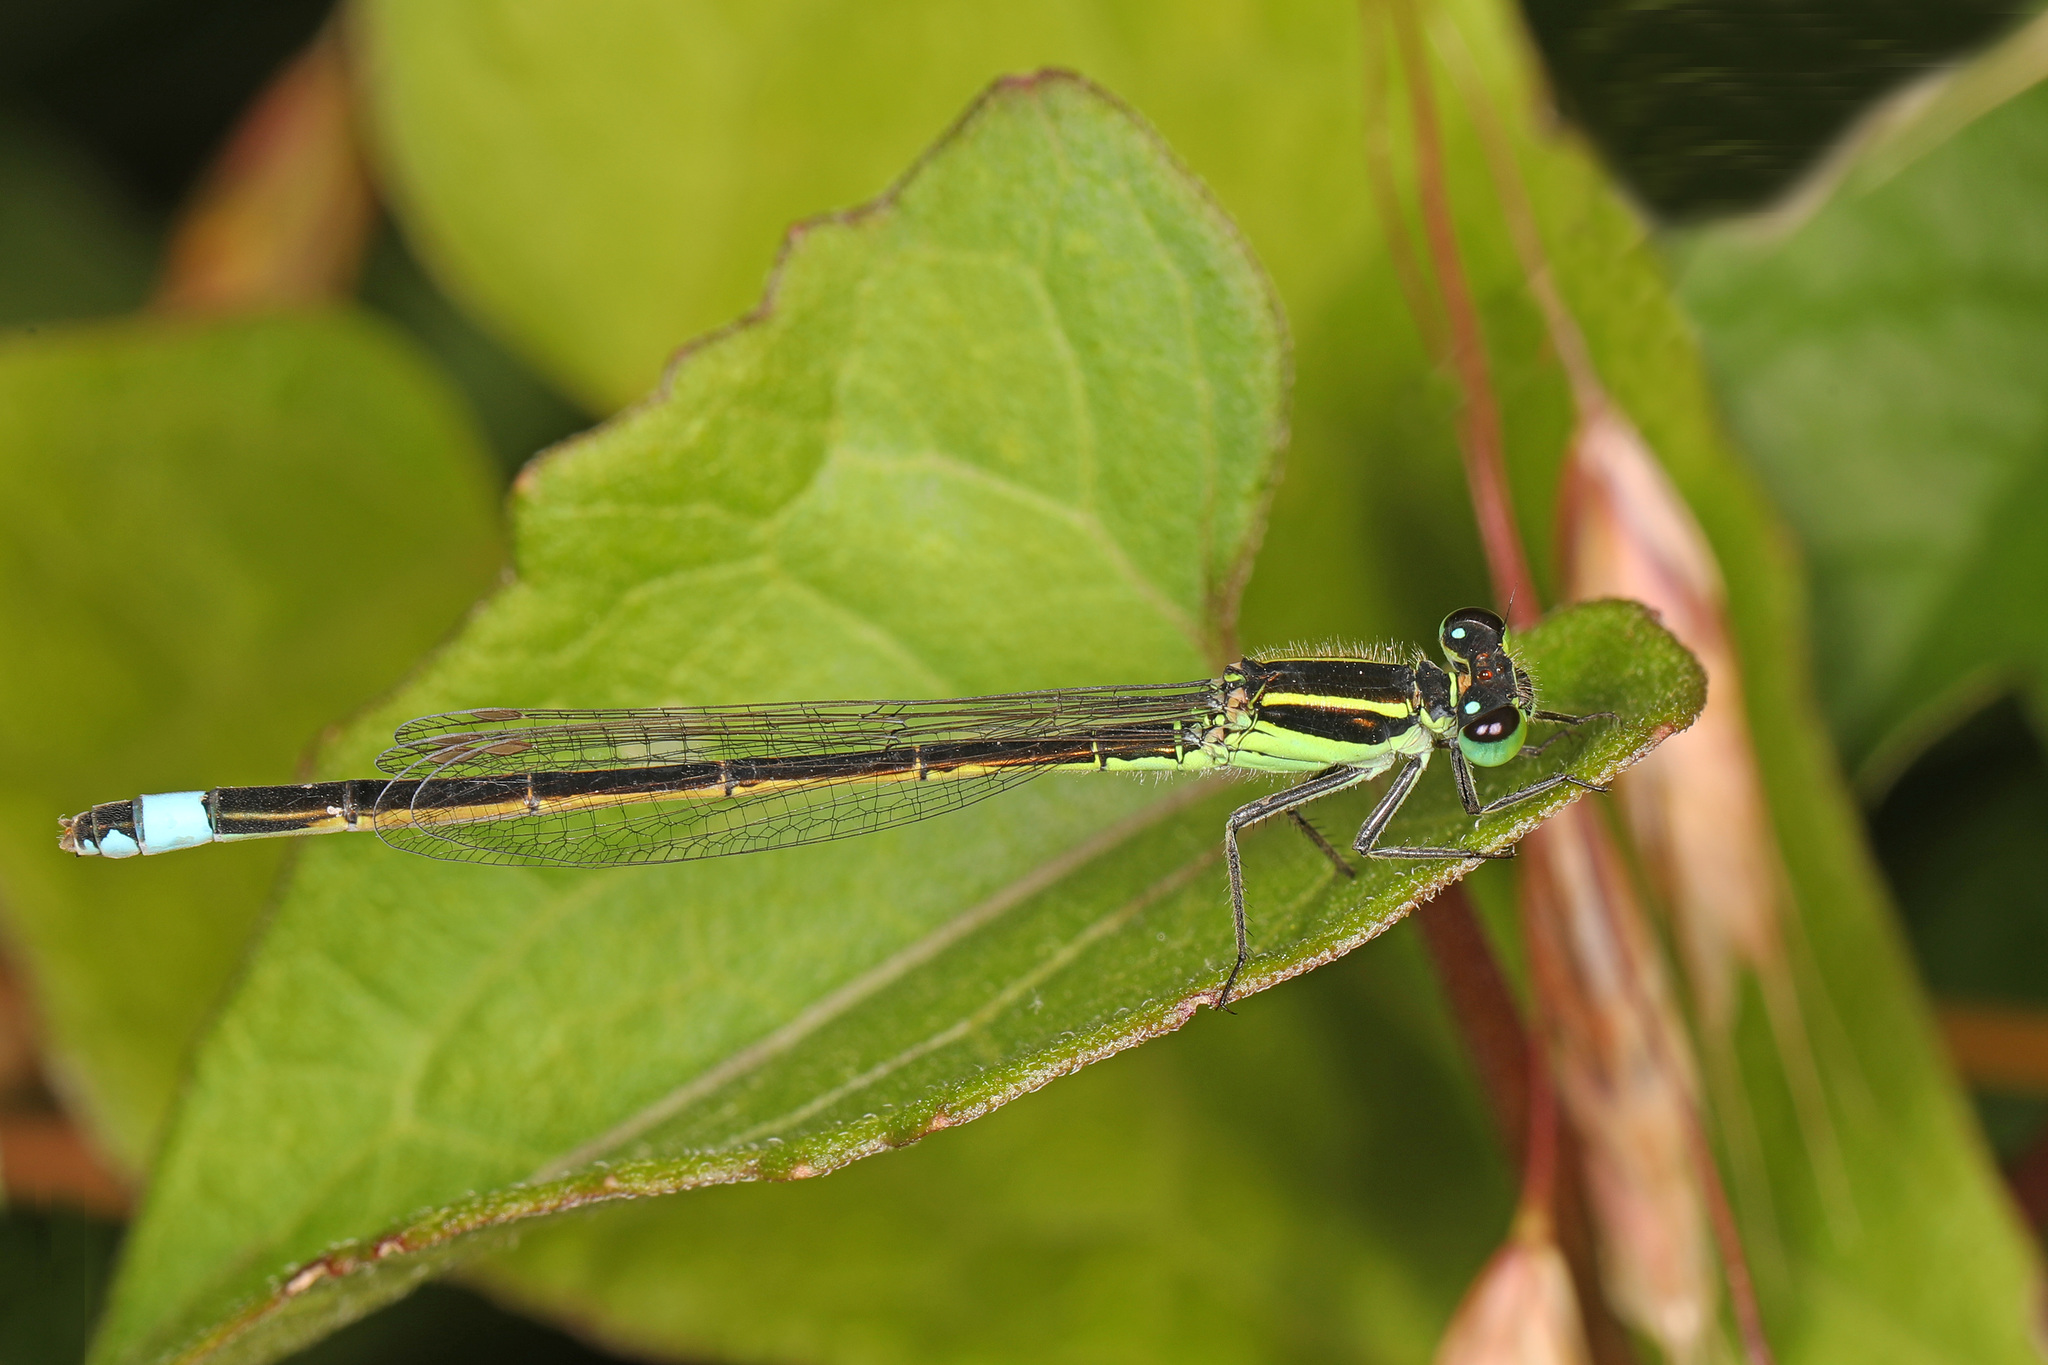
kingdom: Animalia
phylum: Arthropoda
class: Insecta
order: Odonata
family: Coenagrionidae
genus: Ischnura
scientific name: Ischnura ramburii
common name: Rambur's forktail
